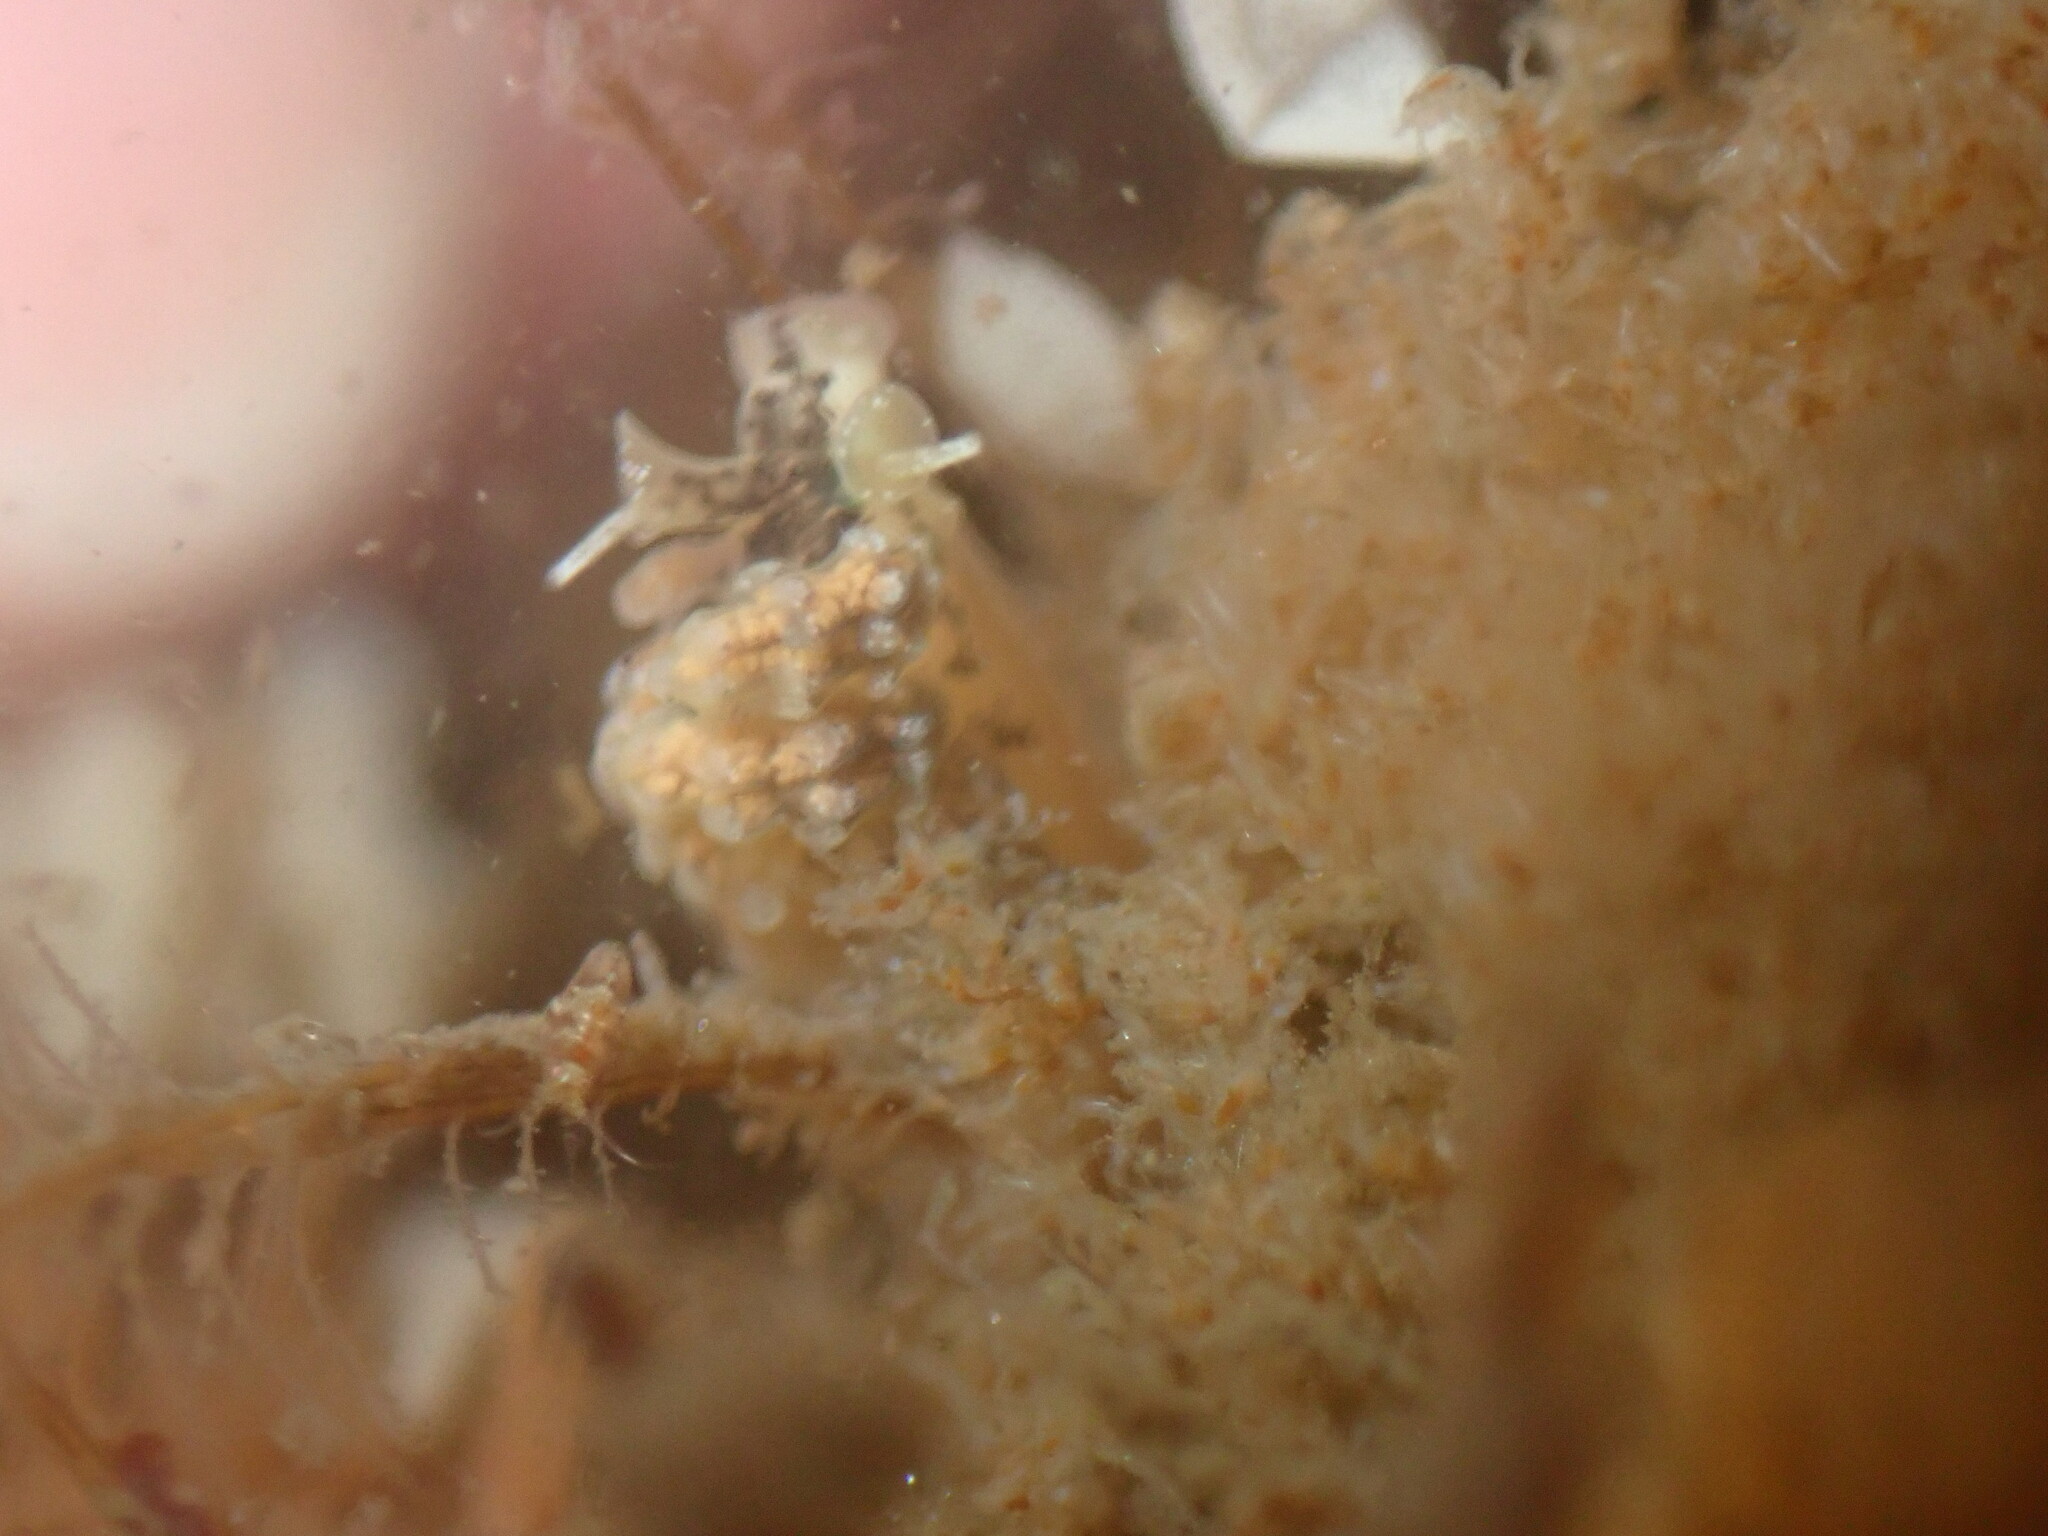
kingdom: Animalia
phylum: Mollusca
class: Gastropoda
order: Nudibranchia
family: Dotidae
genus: Doto
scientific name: Doto kya
